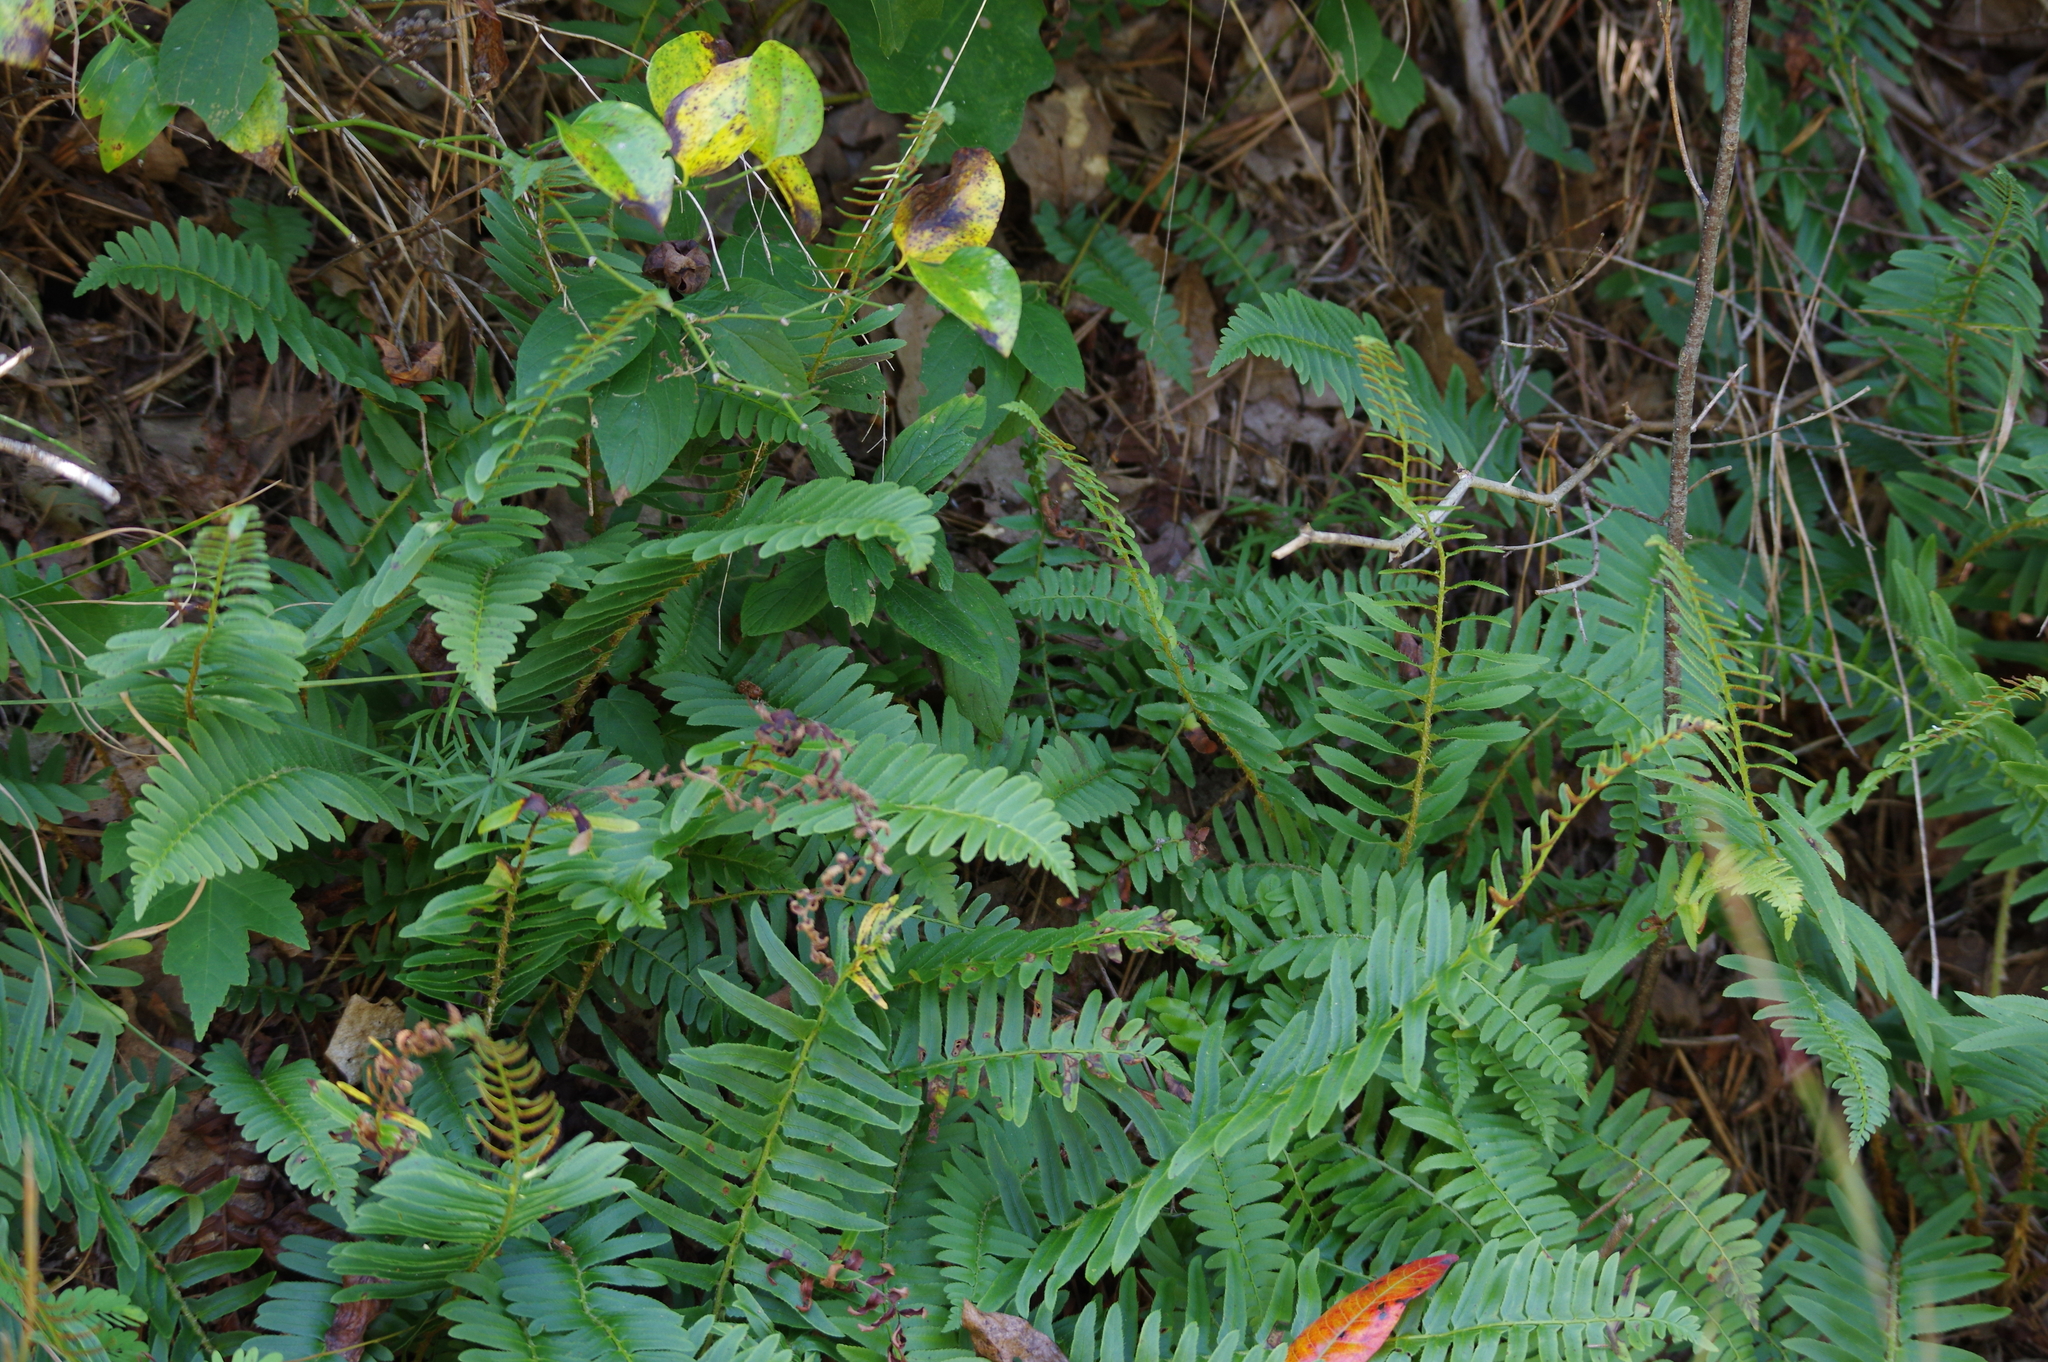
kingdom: Plantae
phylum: Tracheophyta
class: Polypodiopsida
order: Polypodiales
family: Dryopteridaceae
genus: Polystichum
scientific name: Polystichum acrostichoides
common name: Christmas fern
